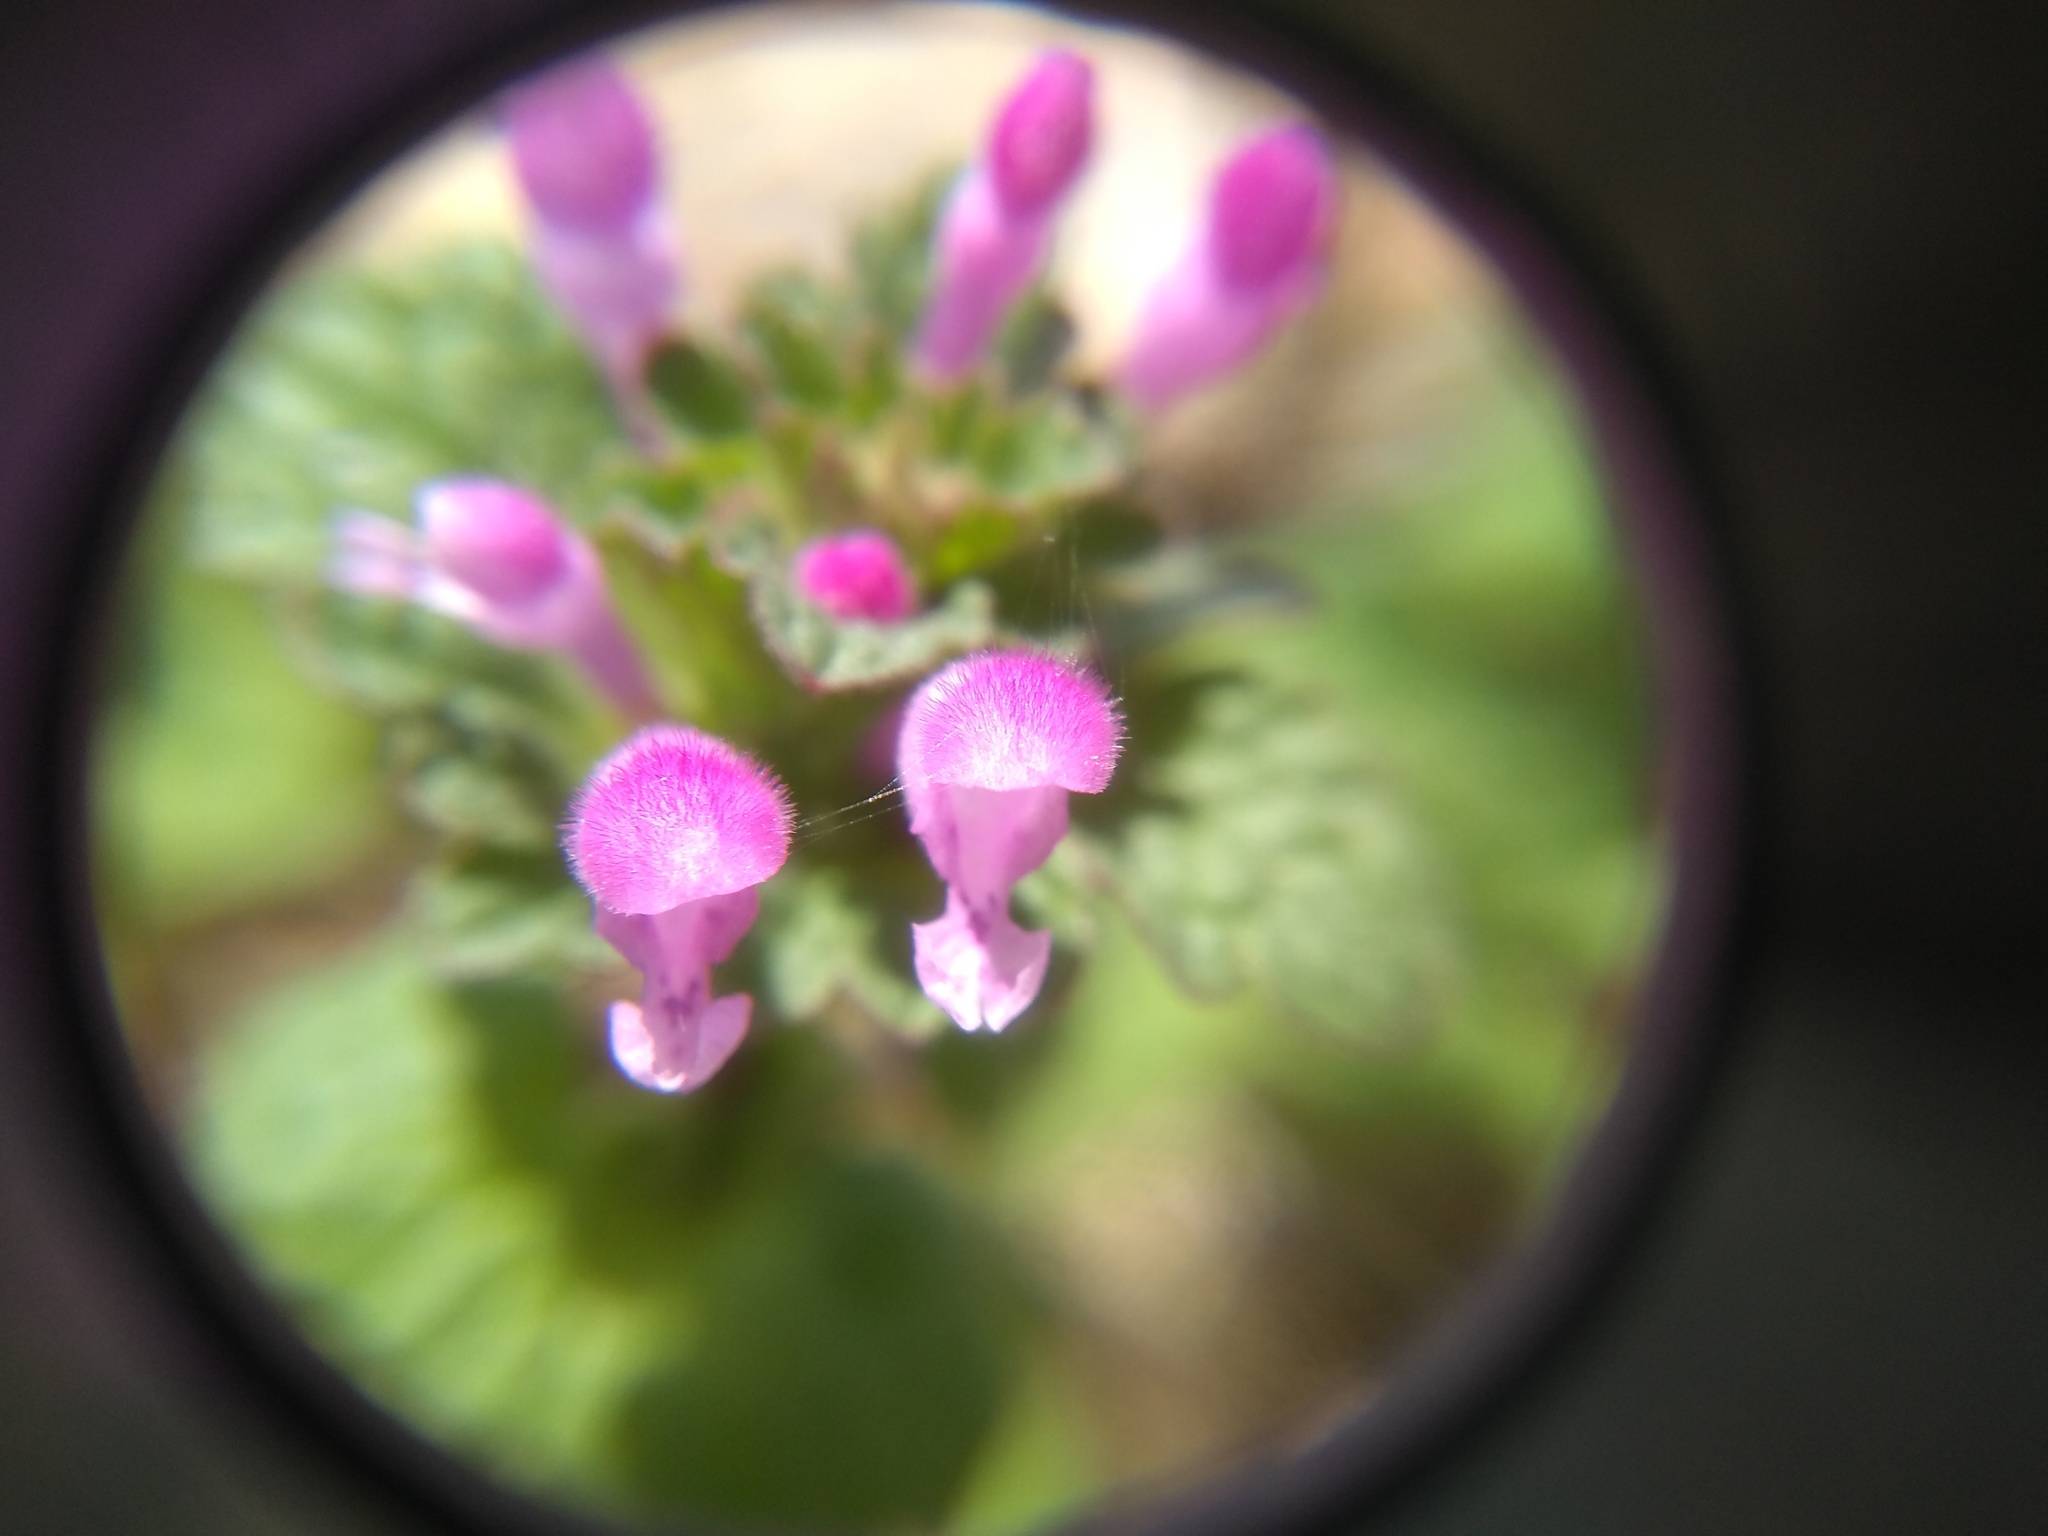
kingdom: Plantae
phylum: Tracheophyta
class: Magnoliopsida
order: Lamiales
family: Lamiaceae
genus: Lamium
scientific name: Lamium amplexicaule
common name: Henbit dead-nettle
